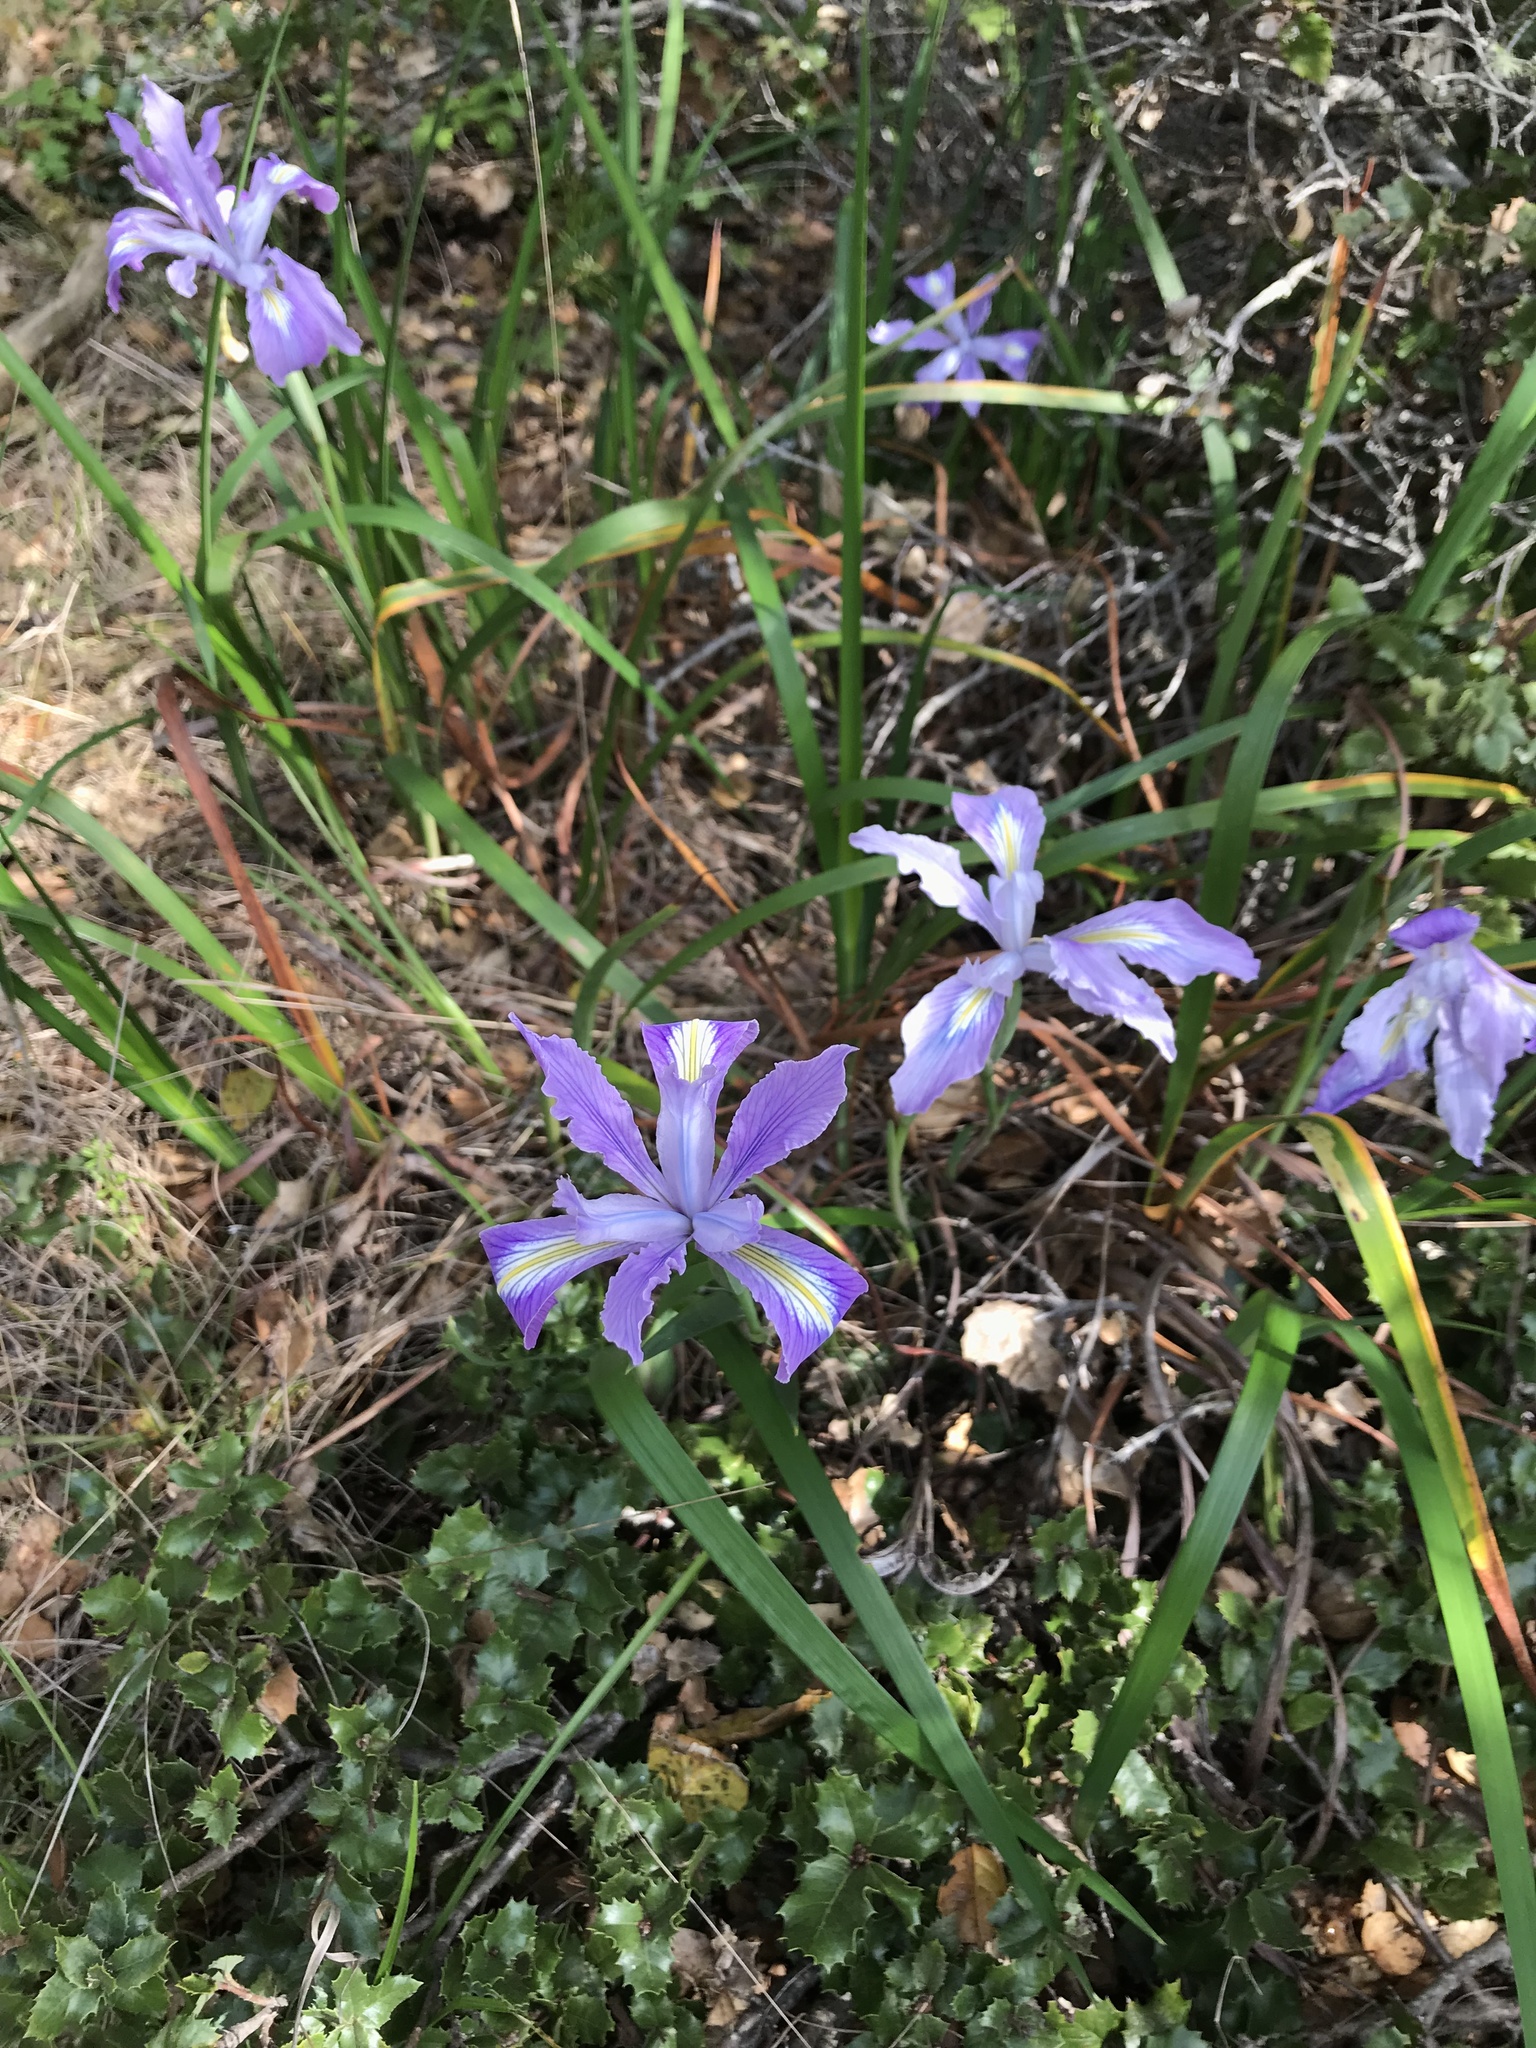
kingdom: Plantae
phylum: Tracheophyta
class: Liliopsida
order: Asparagales
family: Iridaceae
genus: Iris
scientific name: Iris douglasiana
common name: Marin iris
